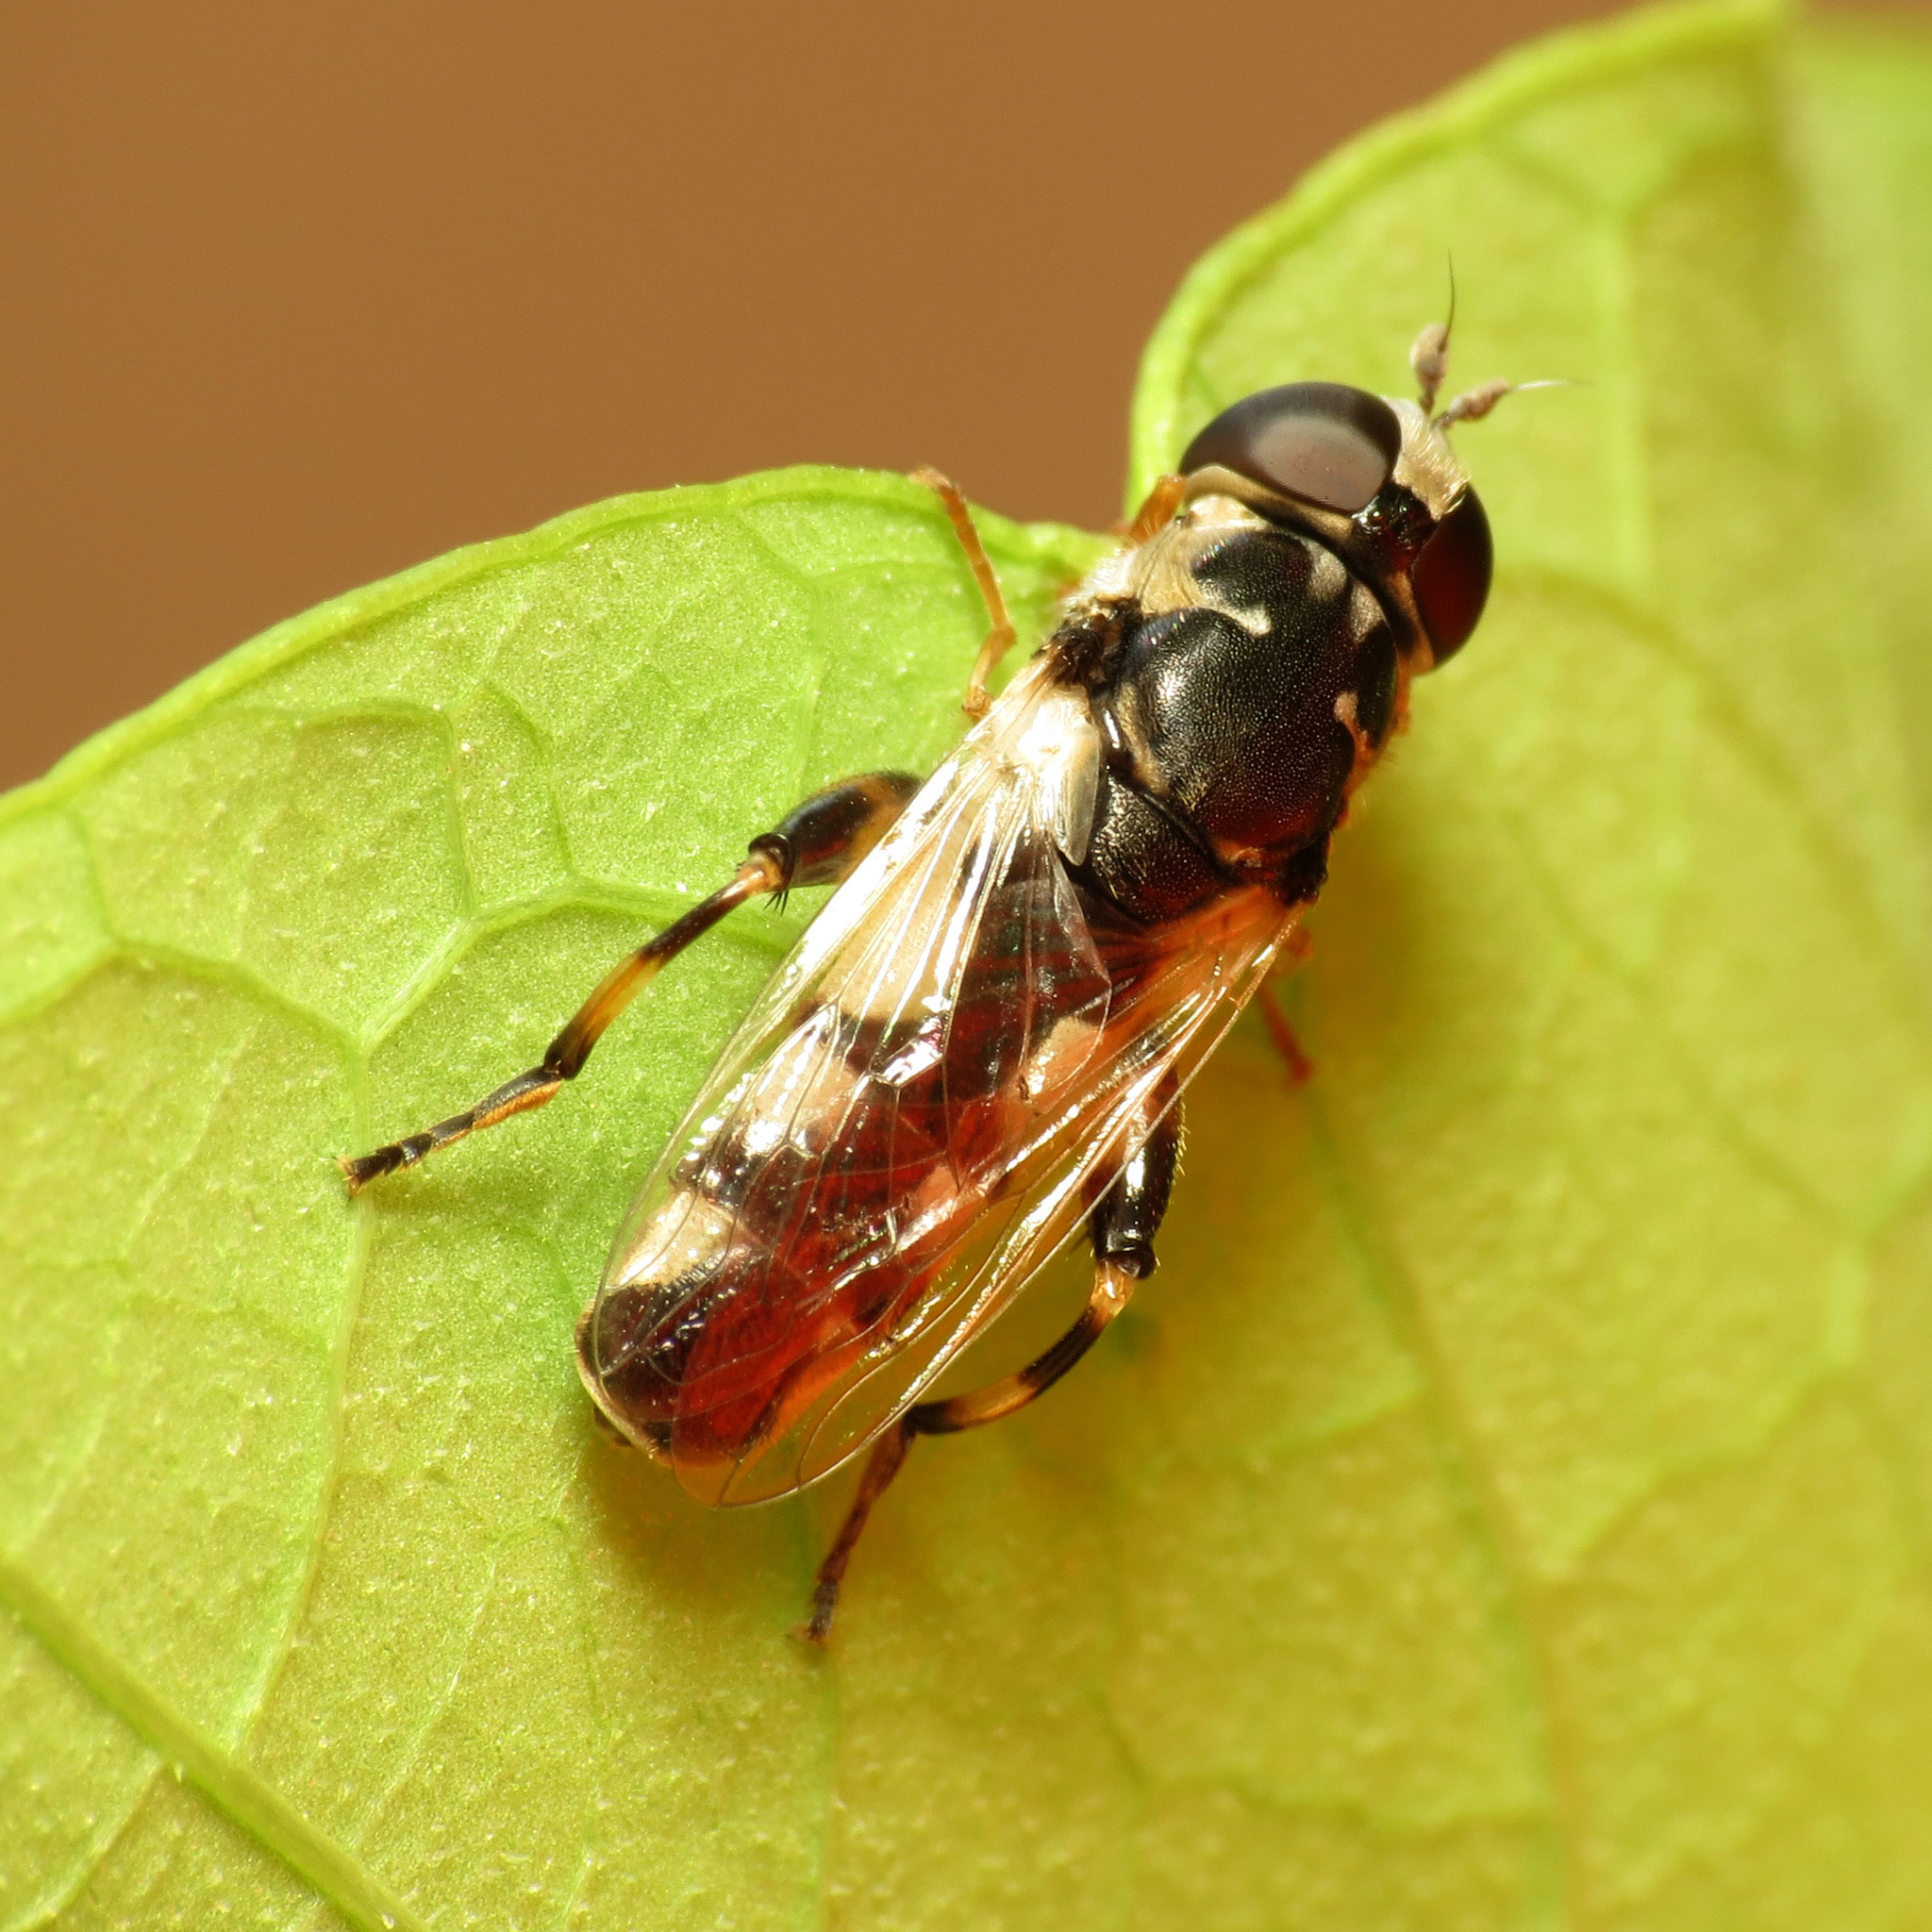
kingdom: Animalia
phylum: Arthropoda
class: Insecta
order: Diptera
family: Syrphidae
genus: Syritta
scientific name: Syritta flaviventris
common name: Syrphid fly
